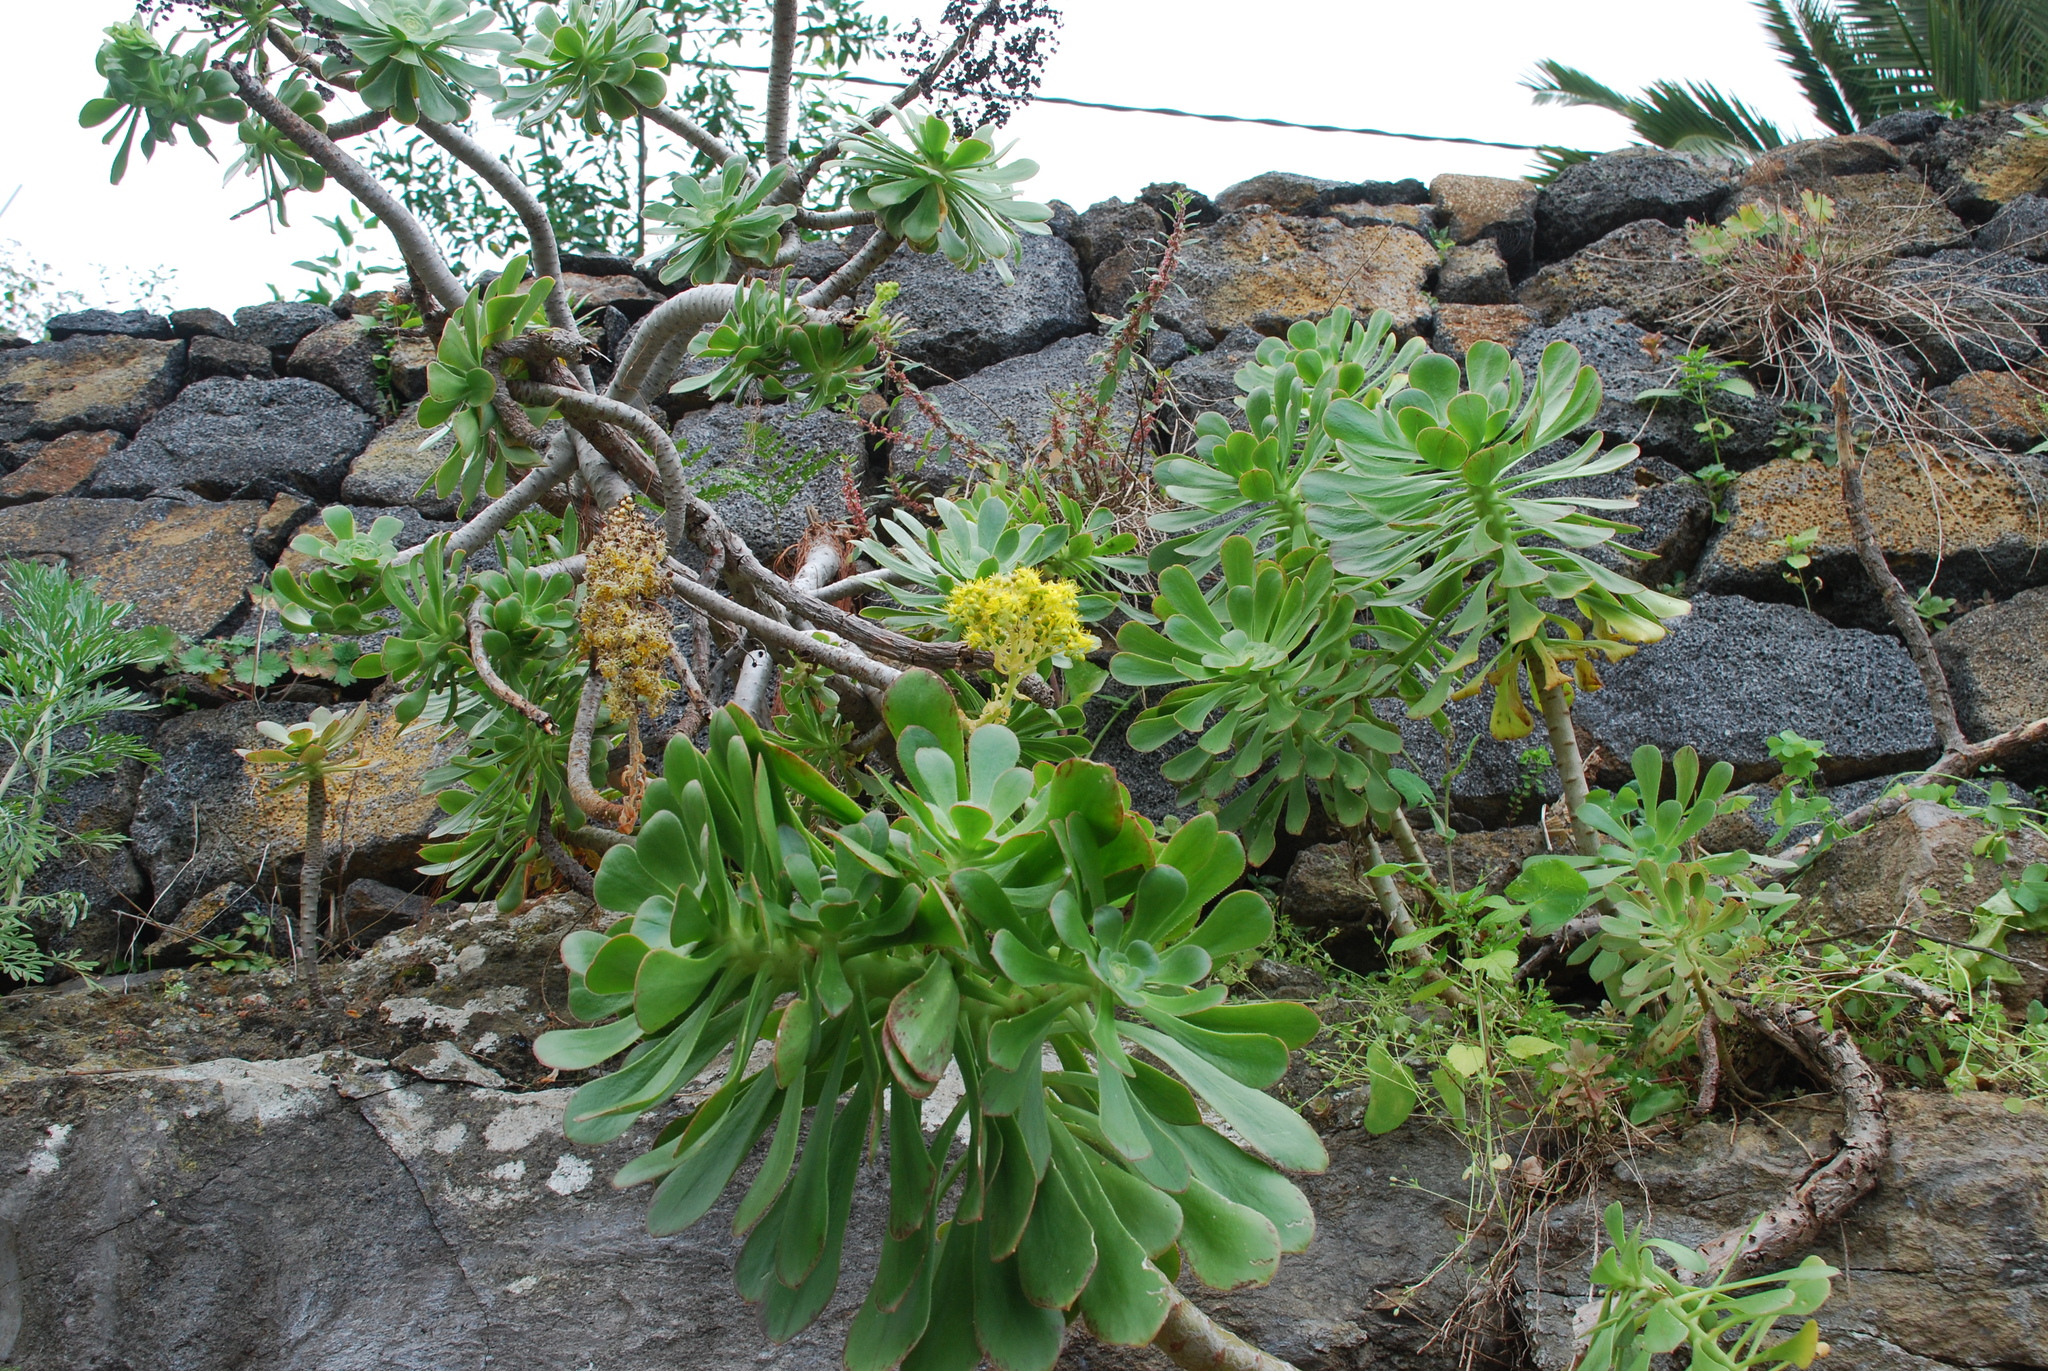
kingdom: Plantae
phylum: Tracheophyta
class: Magnoliopsida
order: Saxifragales
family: Crassulaceae
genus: Aeonium
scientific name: Aeonium arboreum
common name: Tree aeonium
